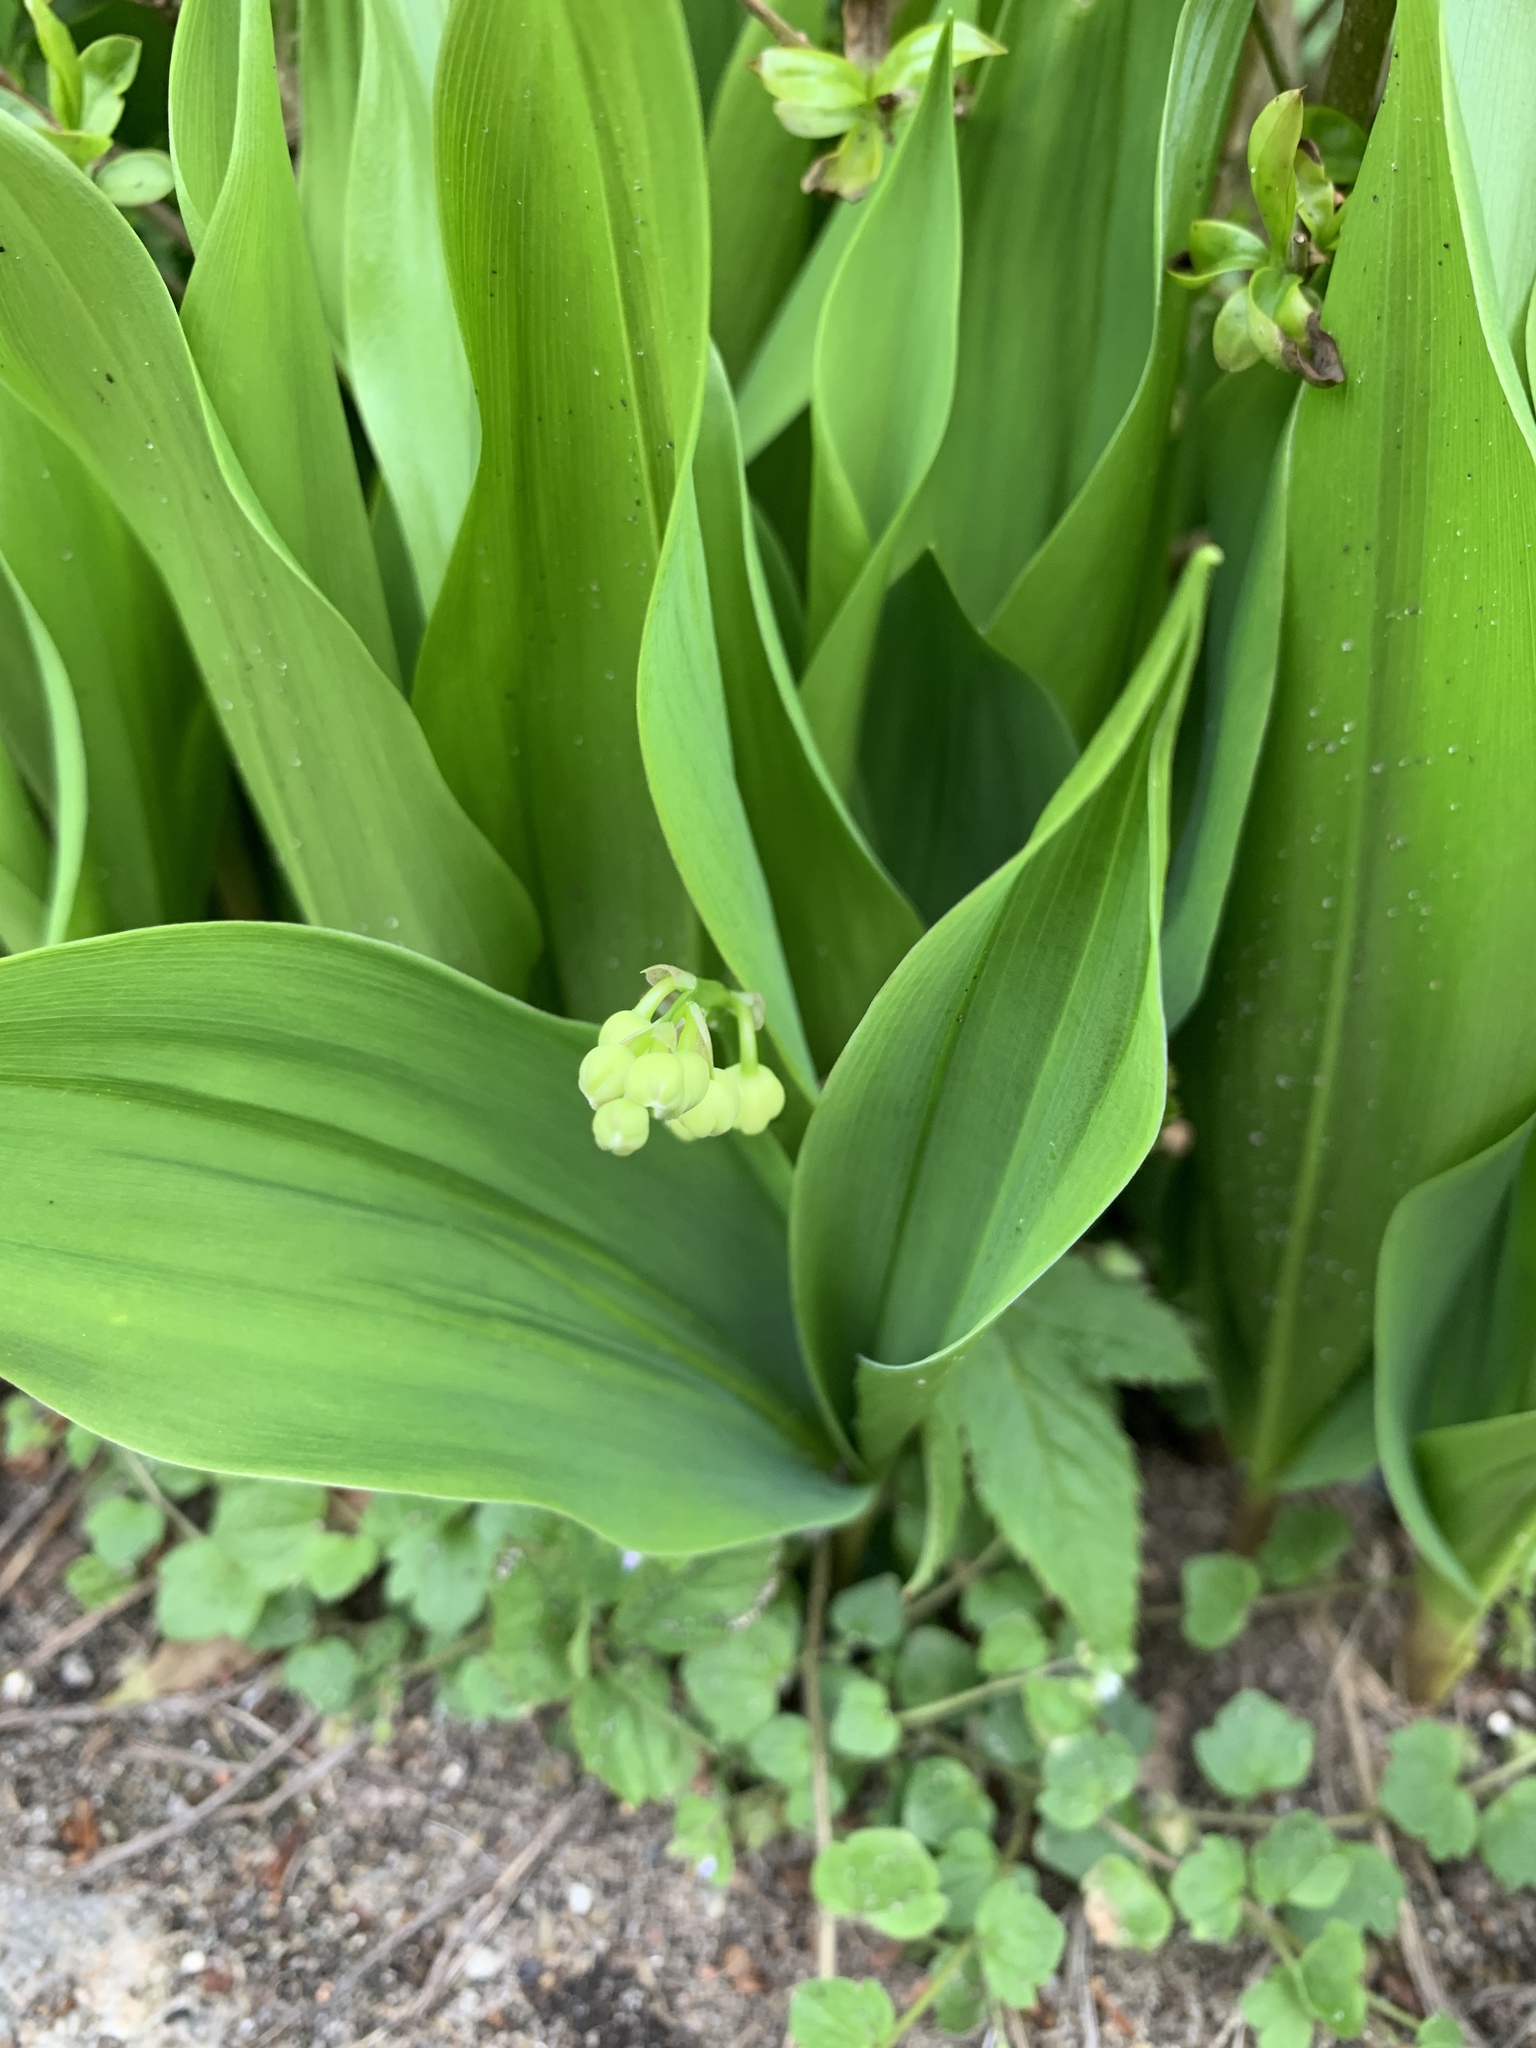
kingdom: Plantae
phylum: Tracheophyta
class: Liliopsida
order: Asparagales
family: Asparagaceae
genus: Convallaria
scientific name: Convallaria majalis
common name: Lily-of-the-valley
